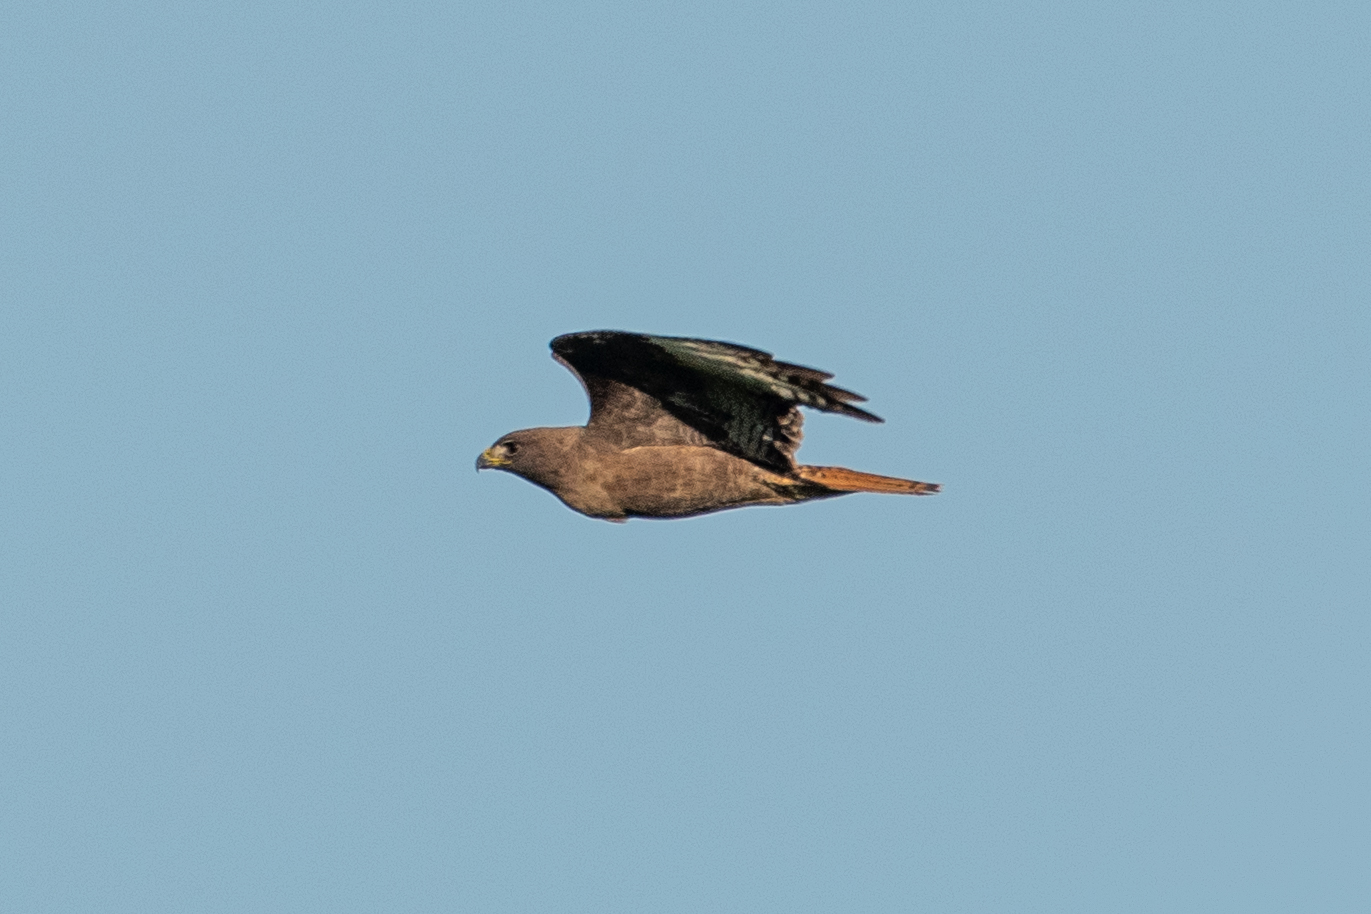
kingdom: Animalia
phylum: Chordata
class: Aves
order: Accipitriformes
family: Accipitridae
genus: Buteo
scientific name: Buteo jamaicensis
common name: Red-tailed hawk
